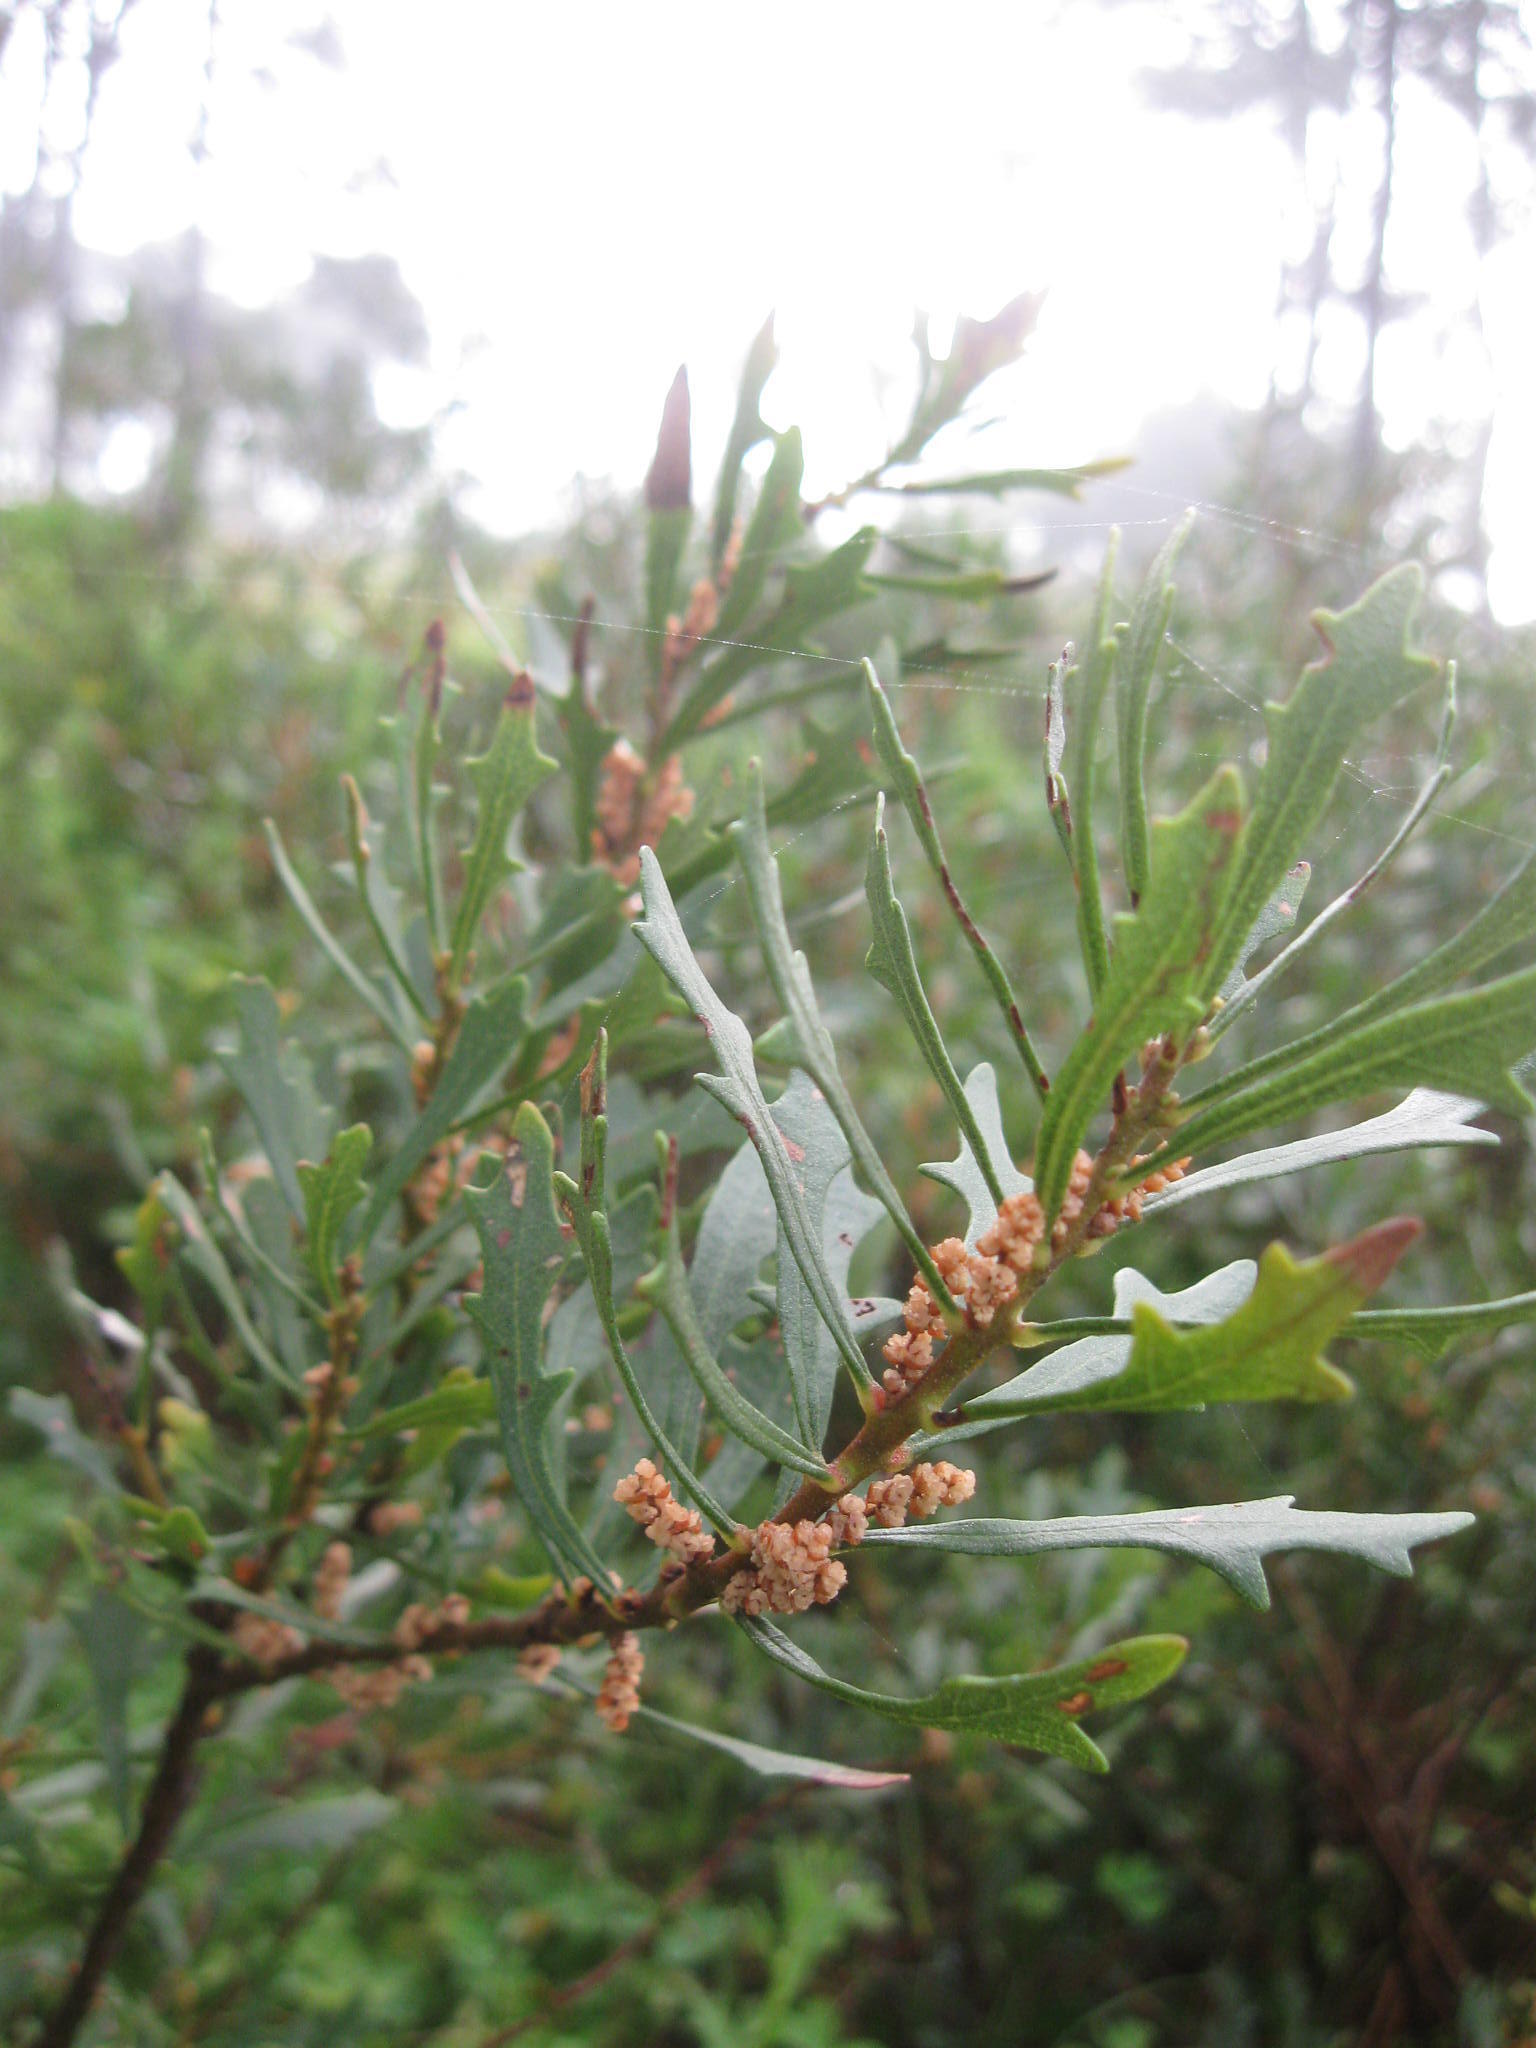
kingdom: Plantae
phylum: Tracheophyta
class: Magnoliopsida
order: Fagales
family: Myricaceae
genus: Morella
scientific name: Morella quercifolia
